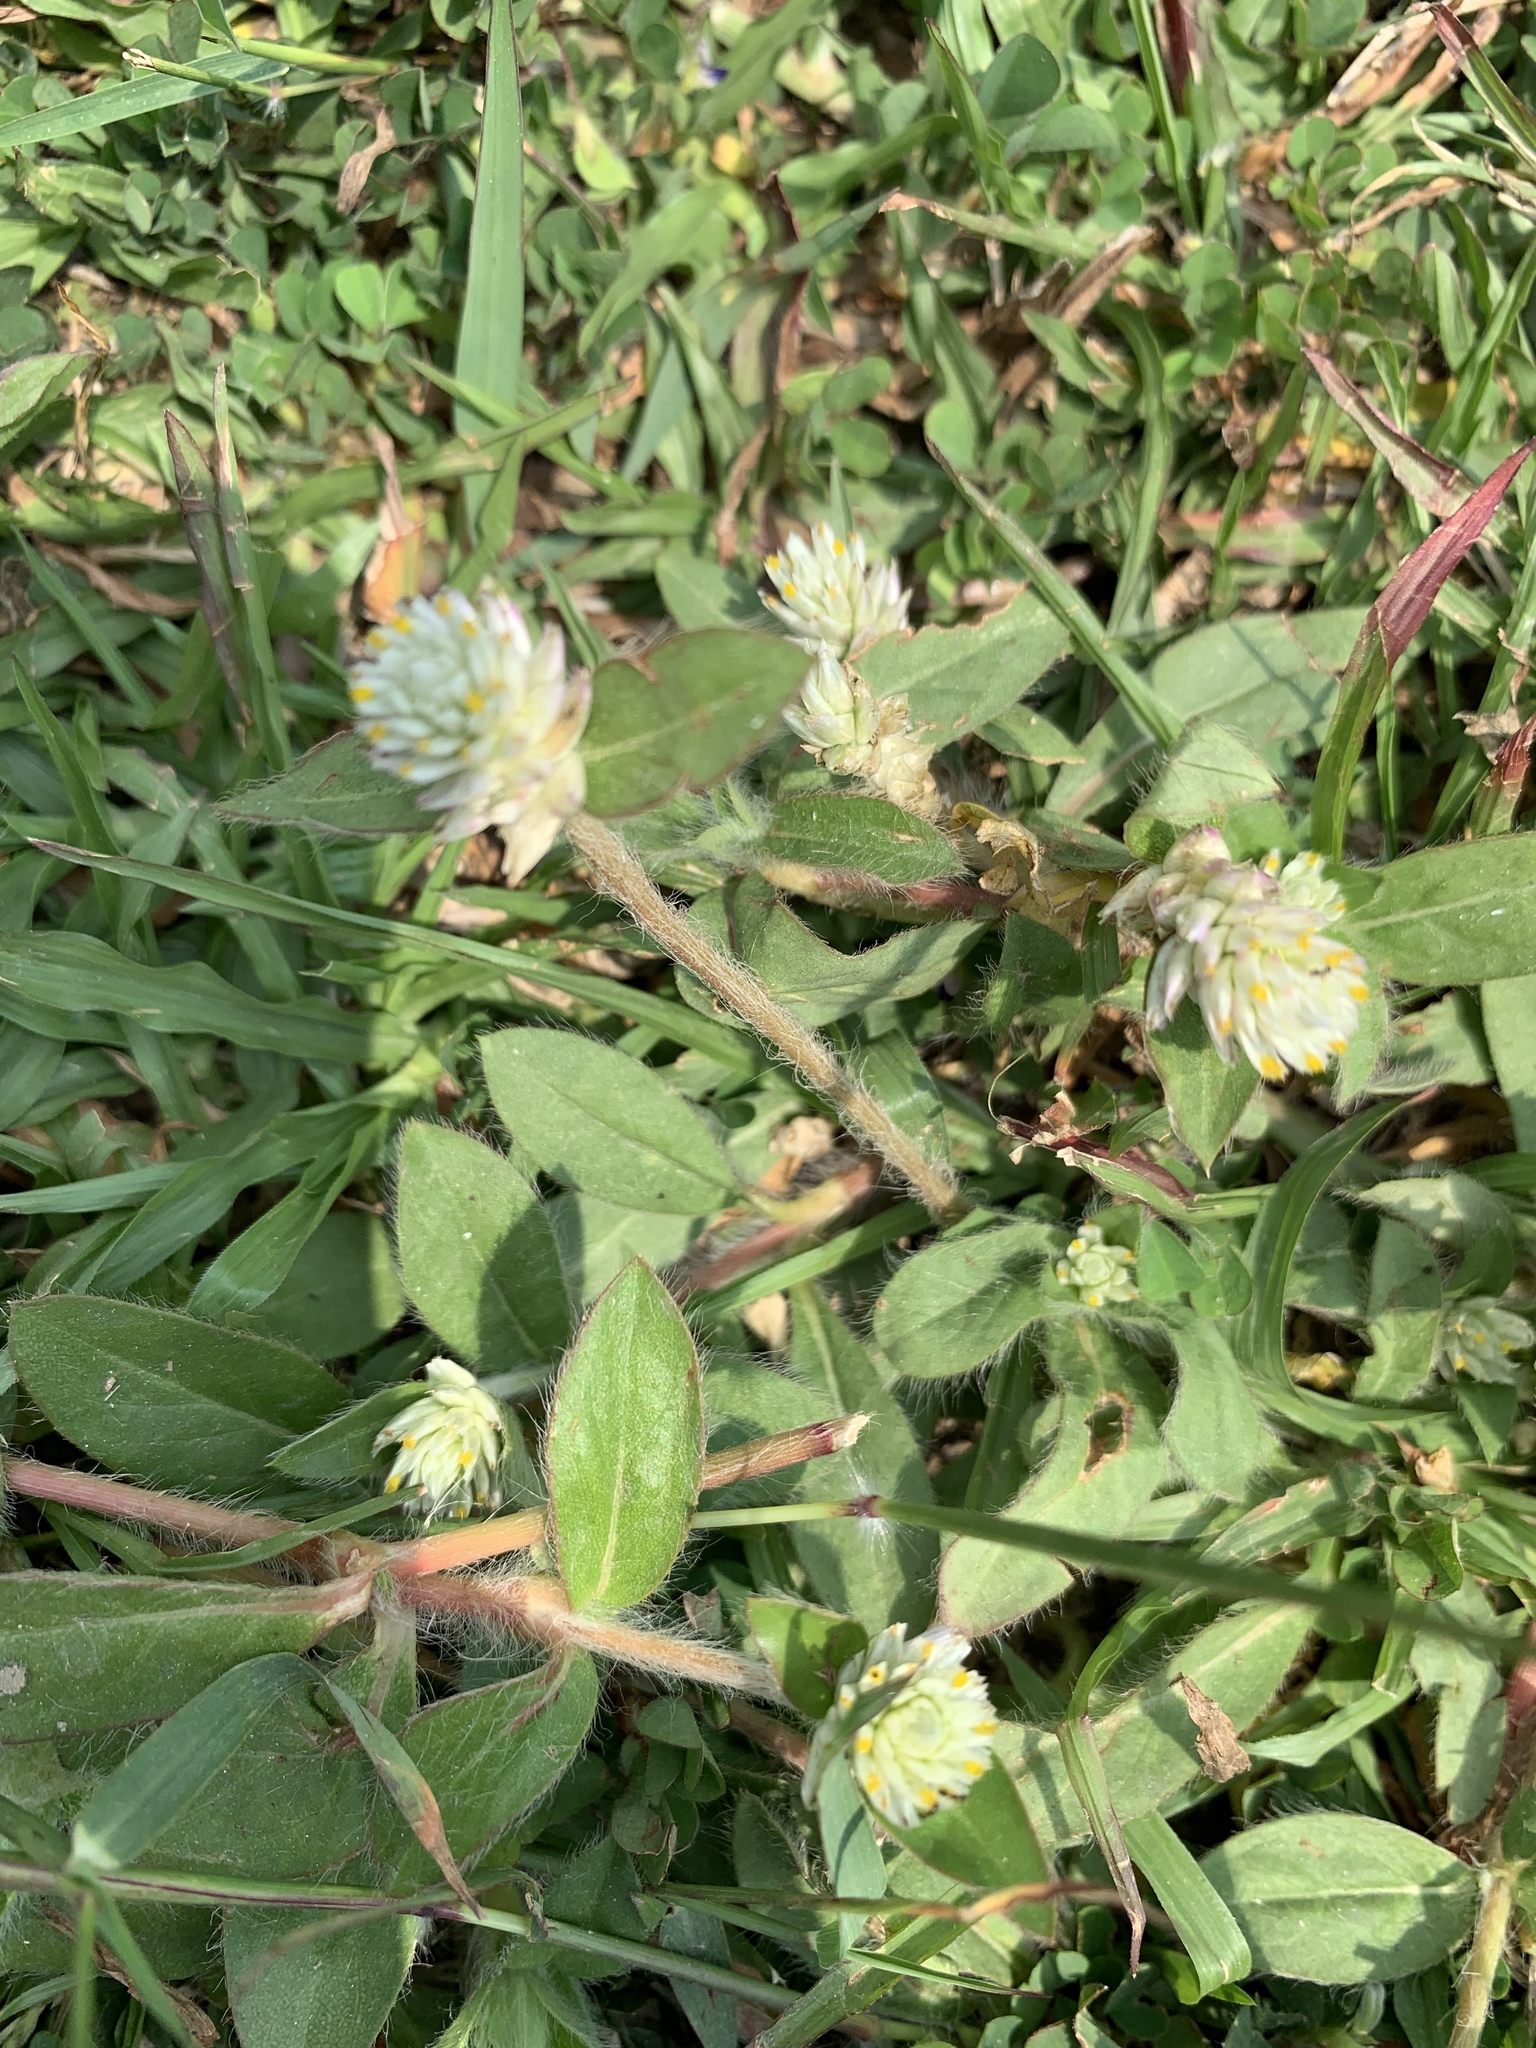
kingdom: Plantae
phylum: Tracheophyta
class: Magnoliopsida
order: Caryophyllales
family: Amaranthaceae
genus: Gomphrena
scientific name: Gomphrena serrata
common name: Arrasa con todo
